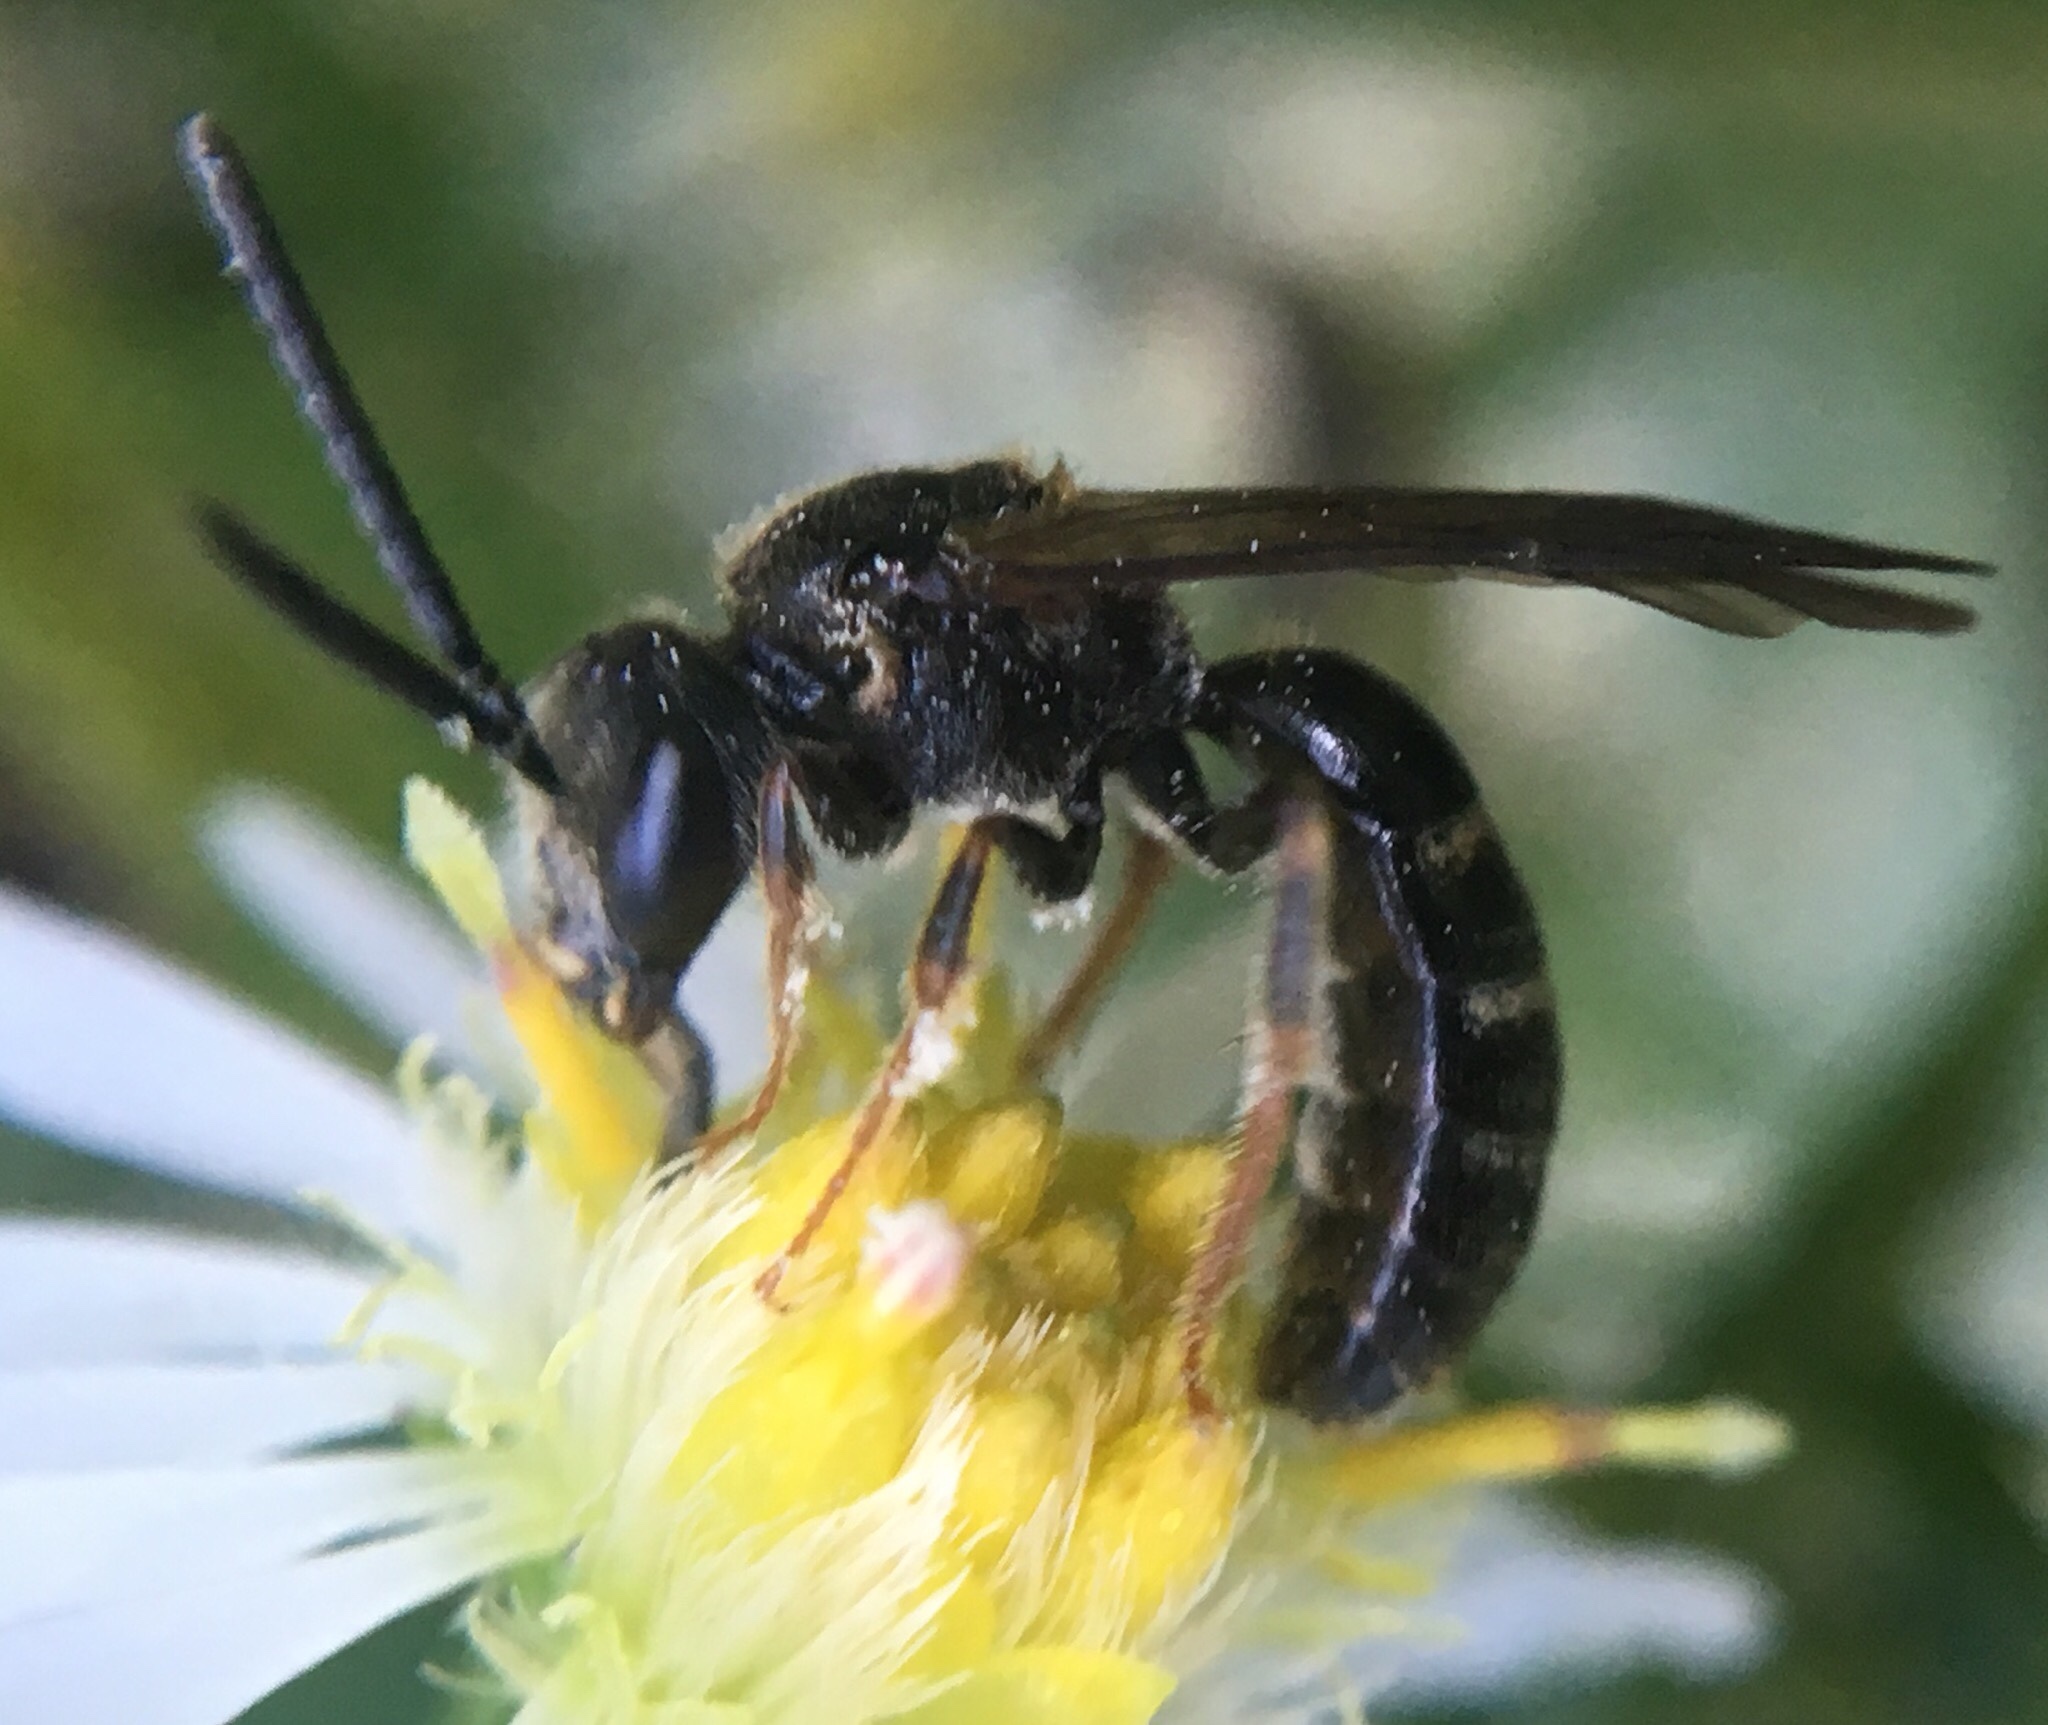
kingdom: Animalia
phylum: Arthropoda
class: Insecta
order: Hymenoptera
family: Halictidae
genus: Lasioglossum
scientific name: Lasioglossum fuscipenne
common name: Brown-winged sweat bee
